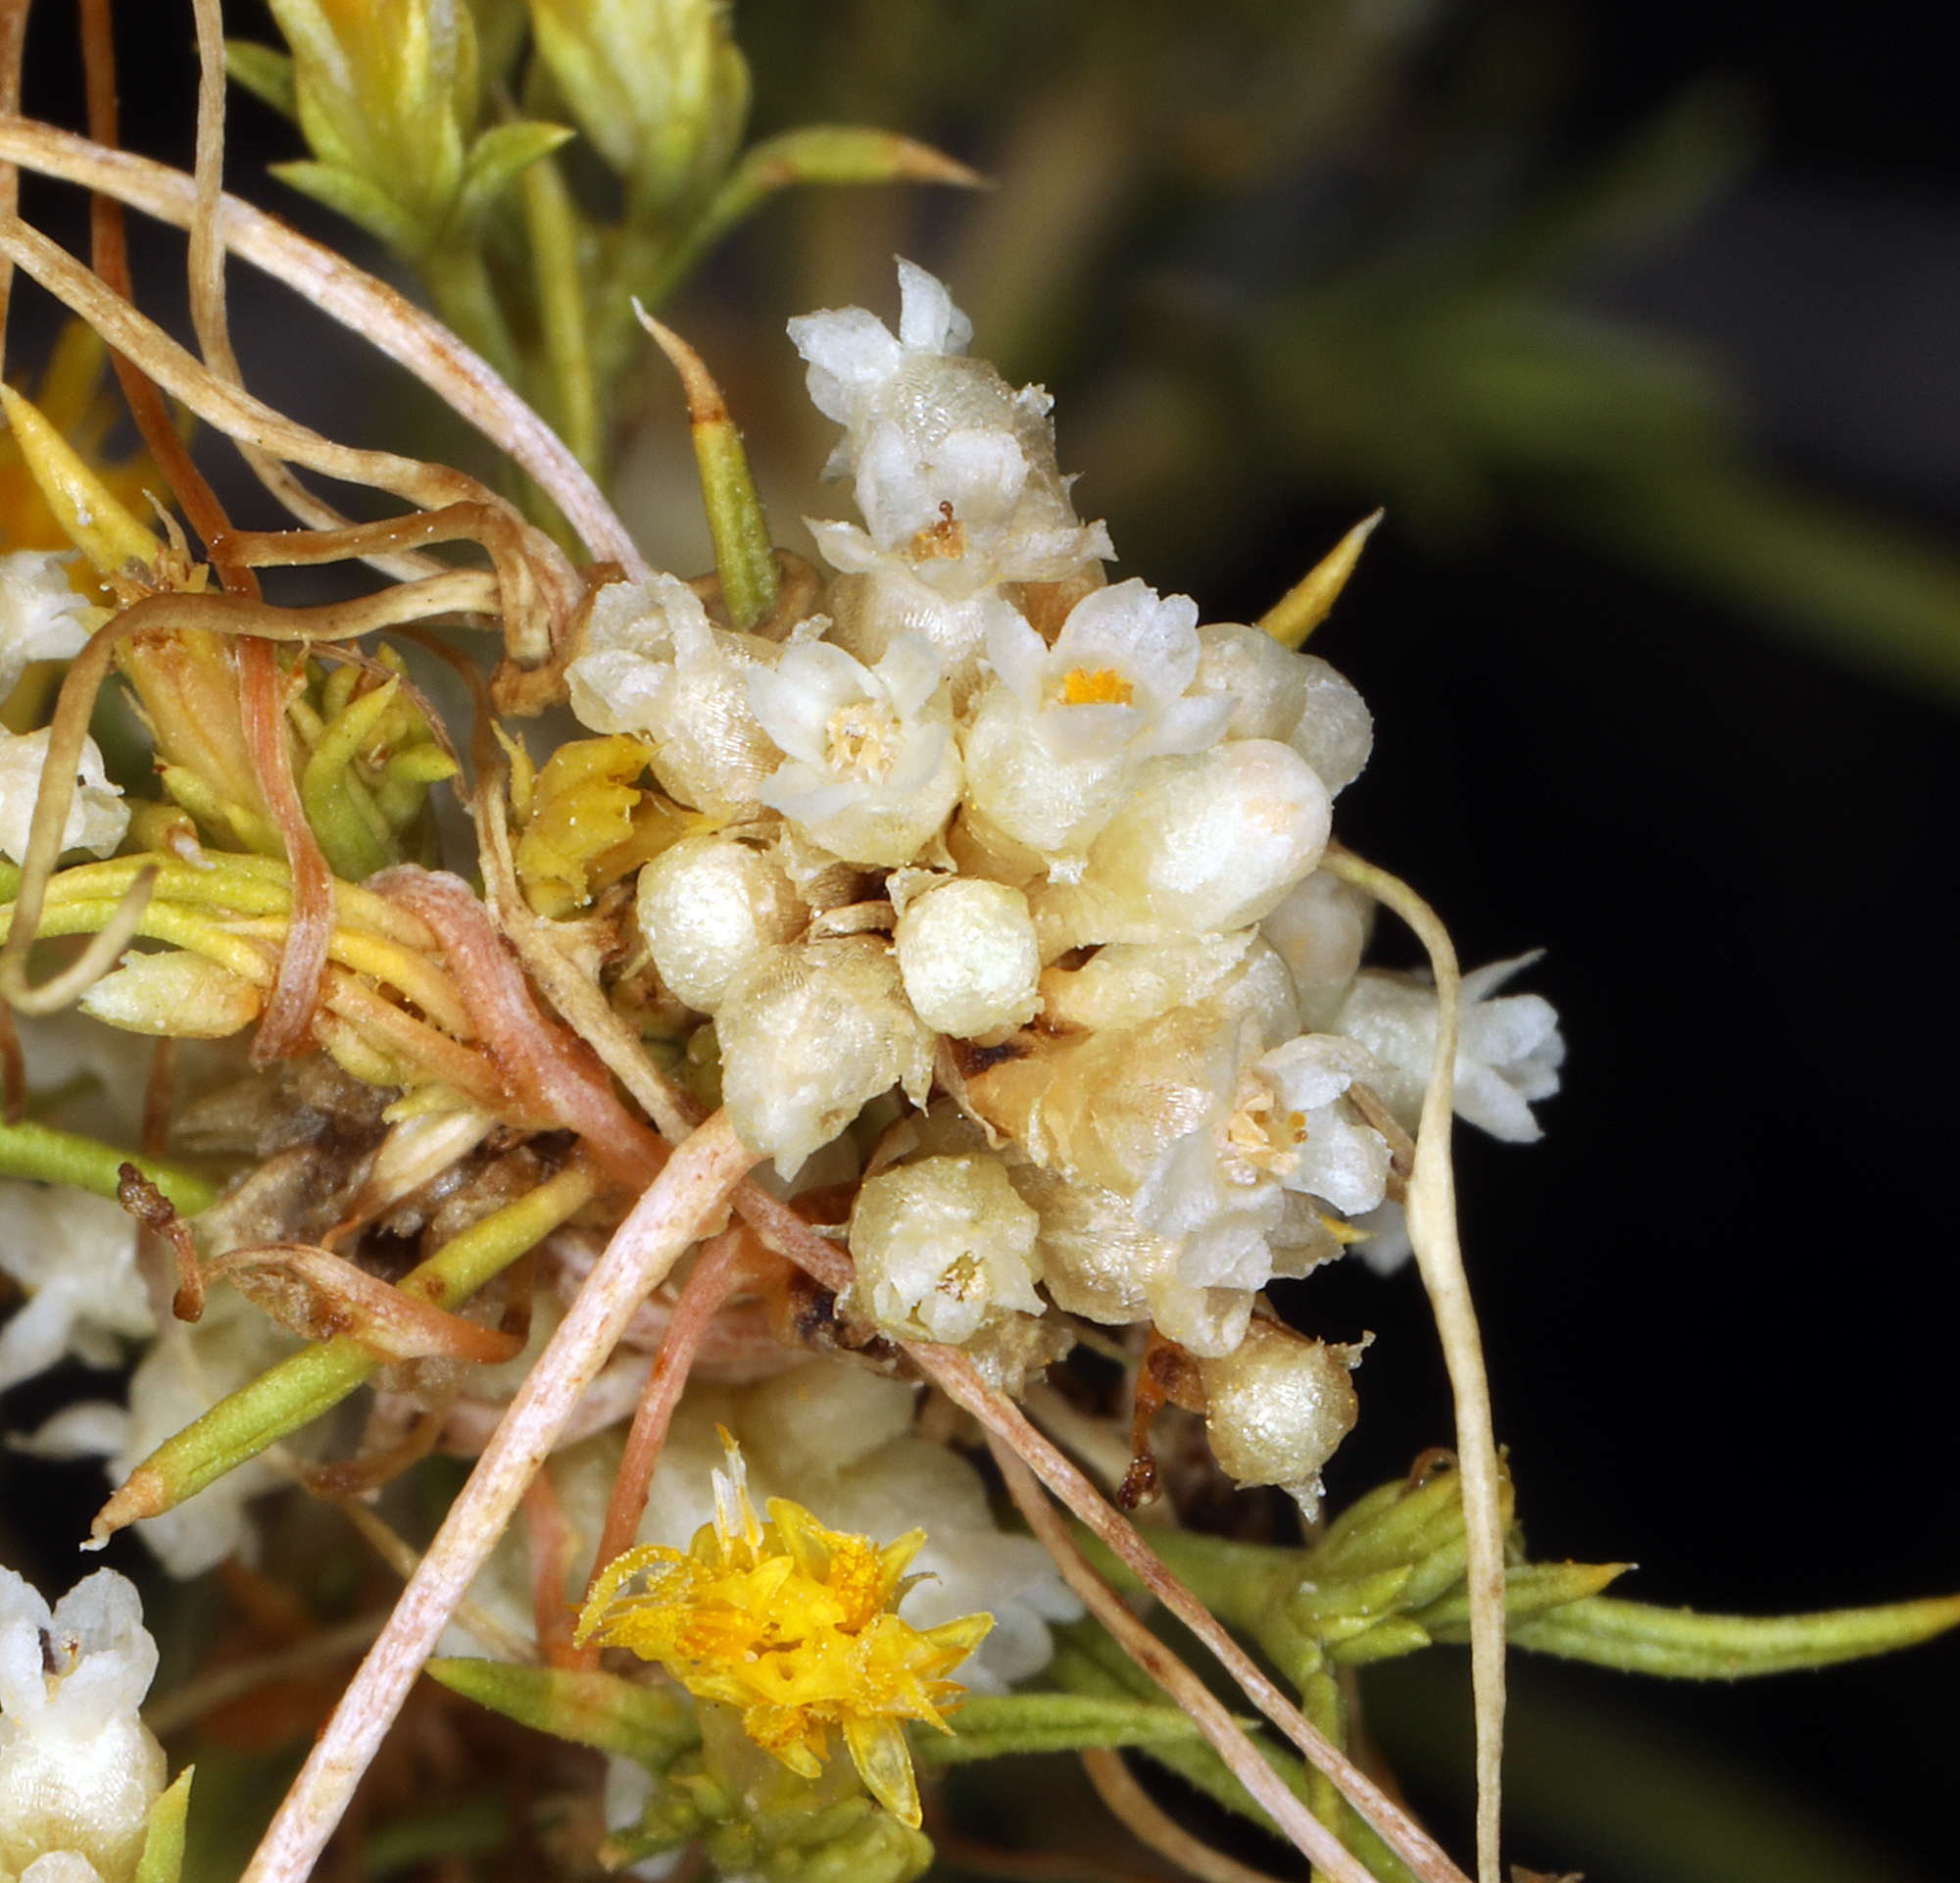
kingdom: Plantae
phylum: Tracheophyta
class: Magnoliopsida
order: Solanales
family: Convolvulaceae
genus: Cuscuta
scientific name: Cuscuta denticulata
